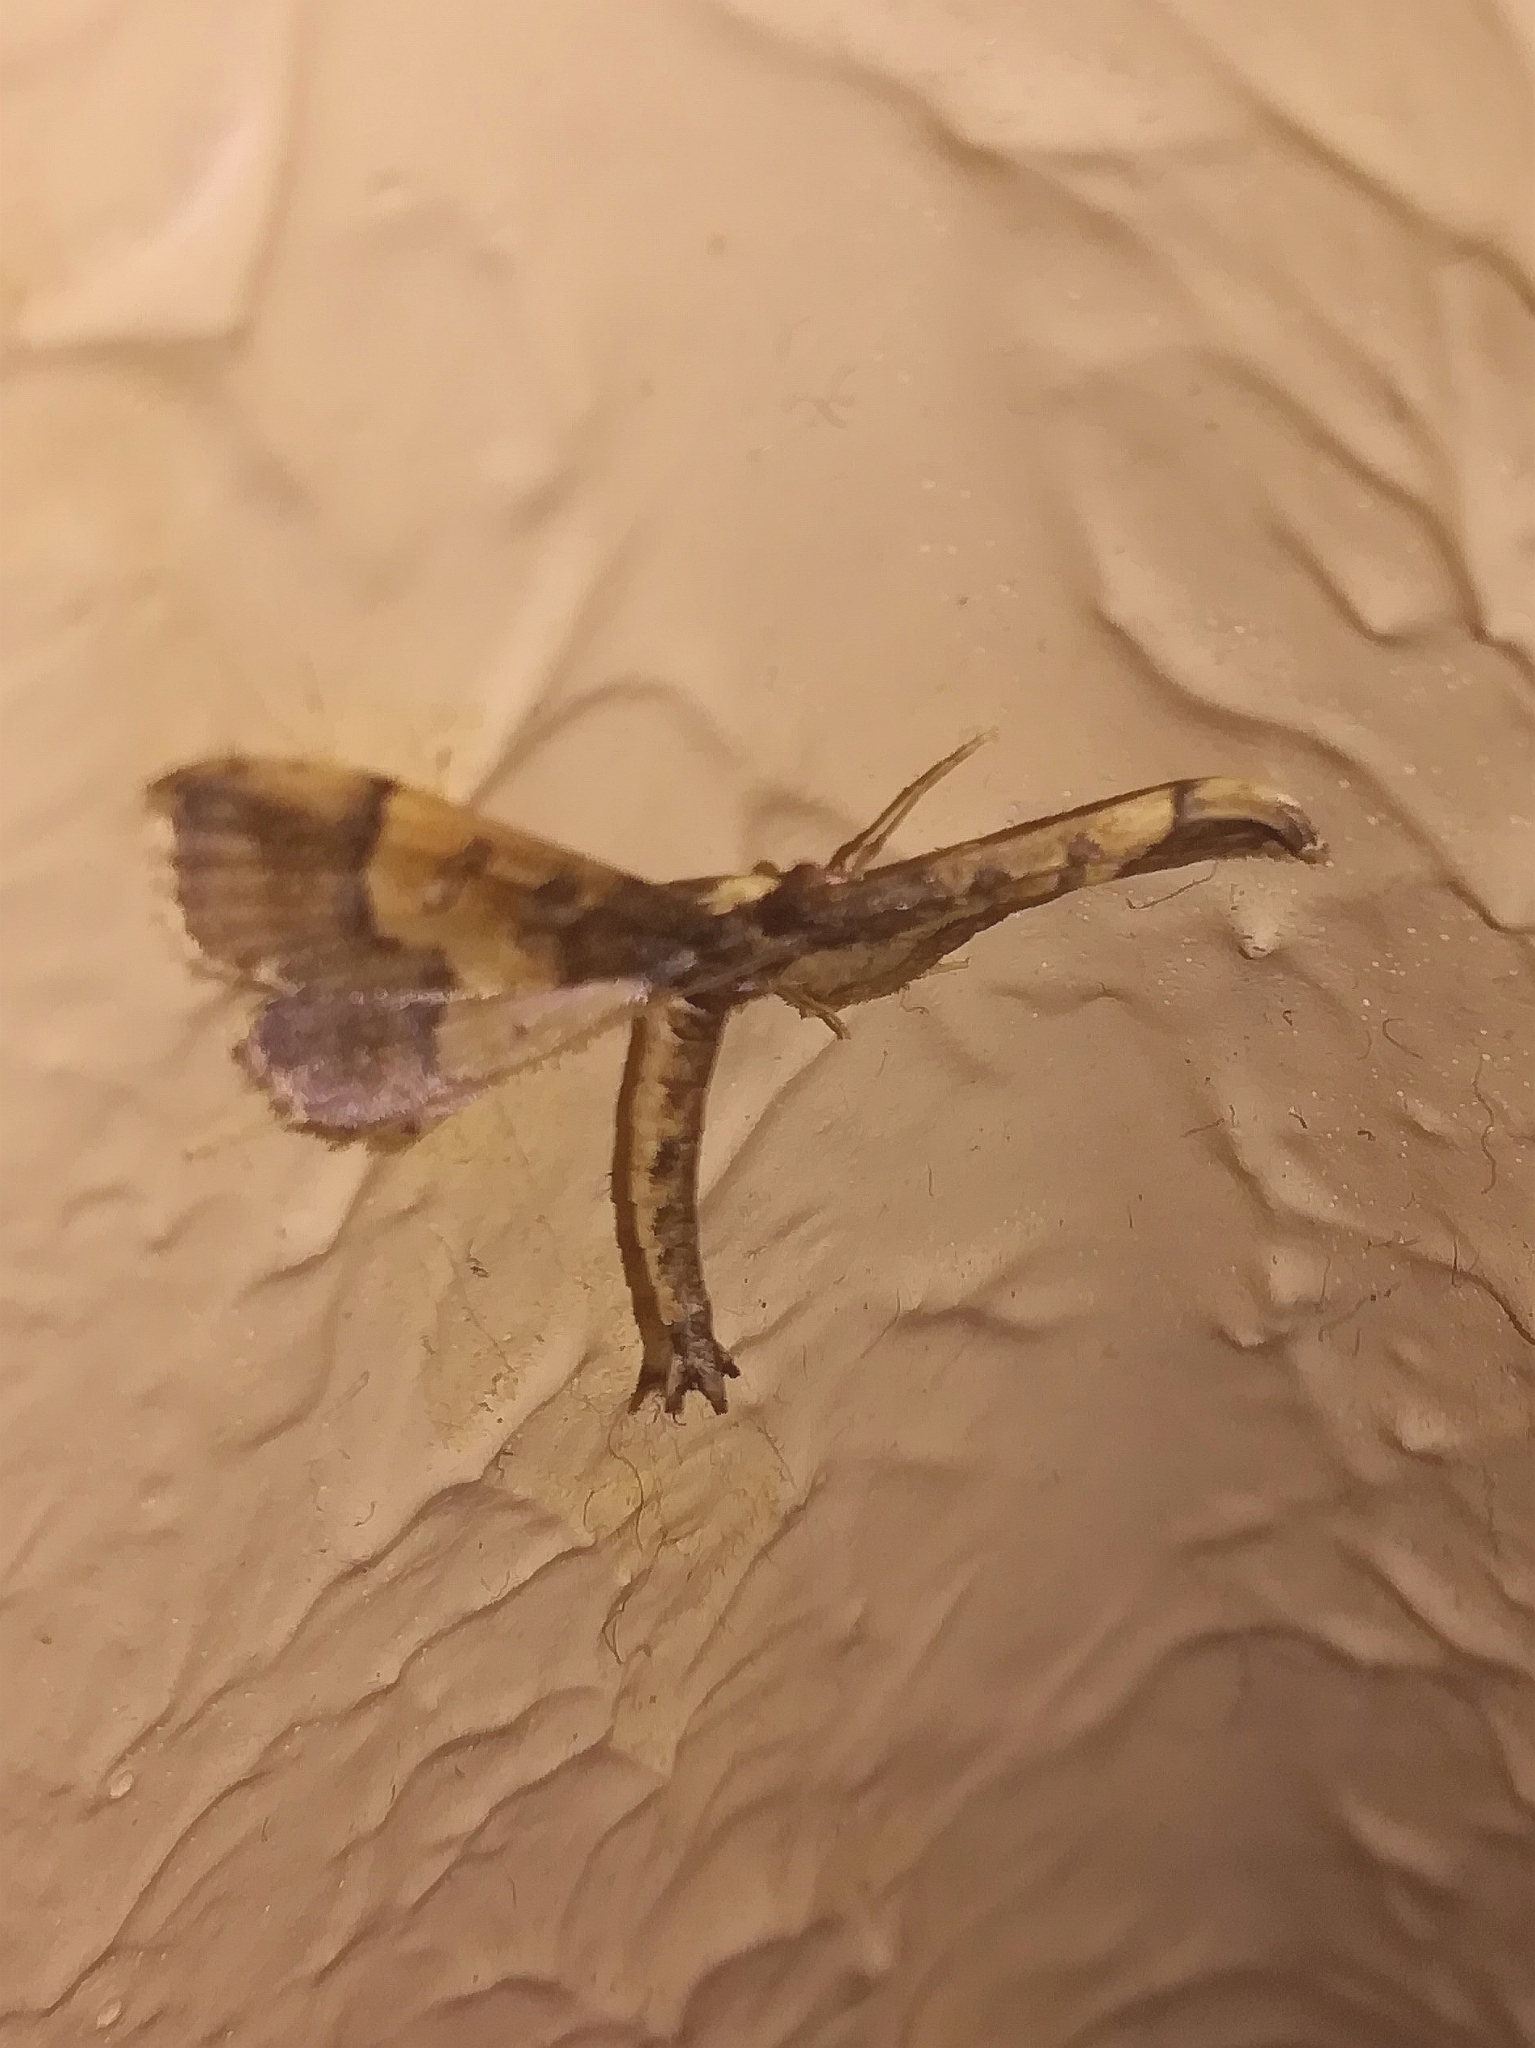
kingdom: Animalia
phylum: Arthropoda
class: Insecta
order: Lepidoptera
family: Crambidae
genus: Hydriris
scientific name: Hydriris ornatalis
